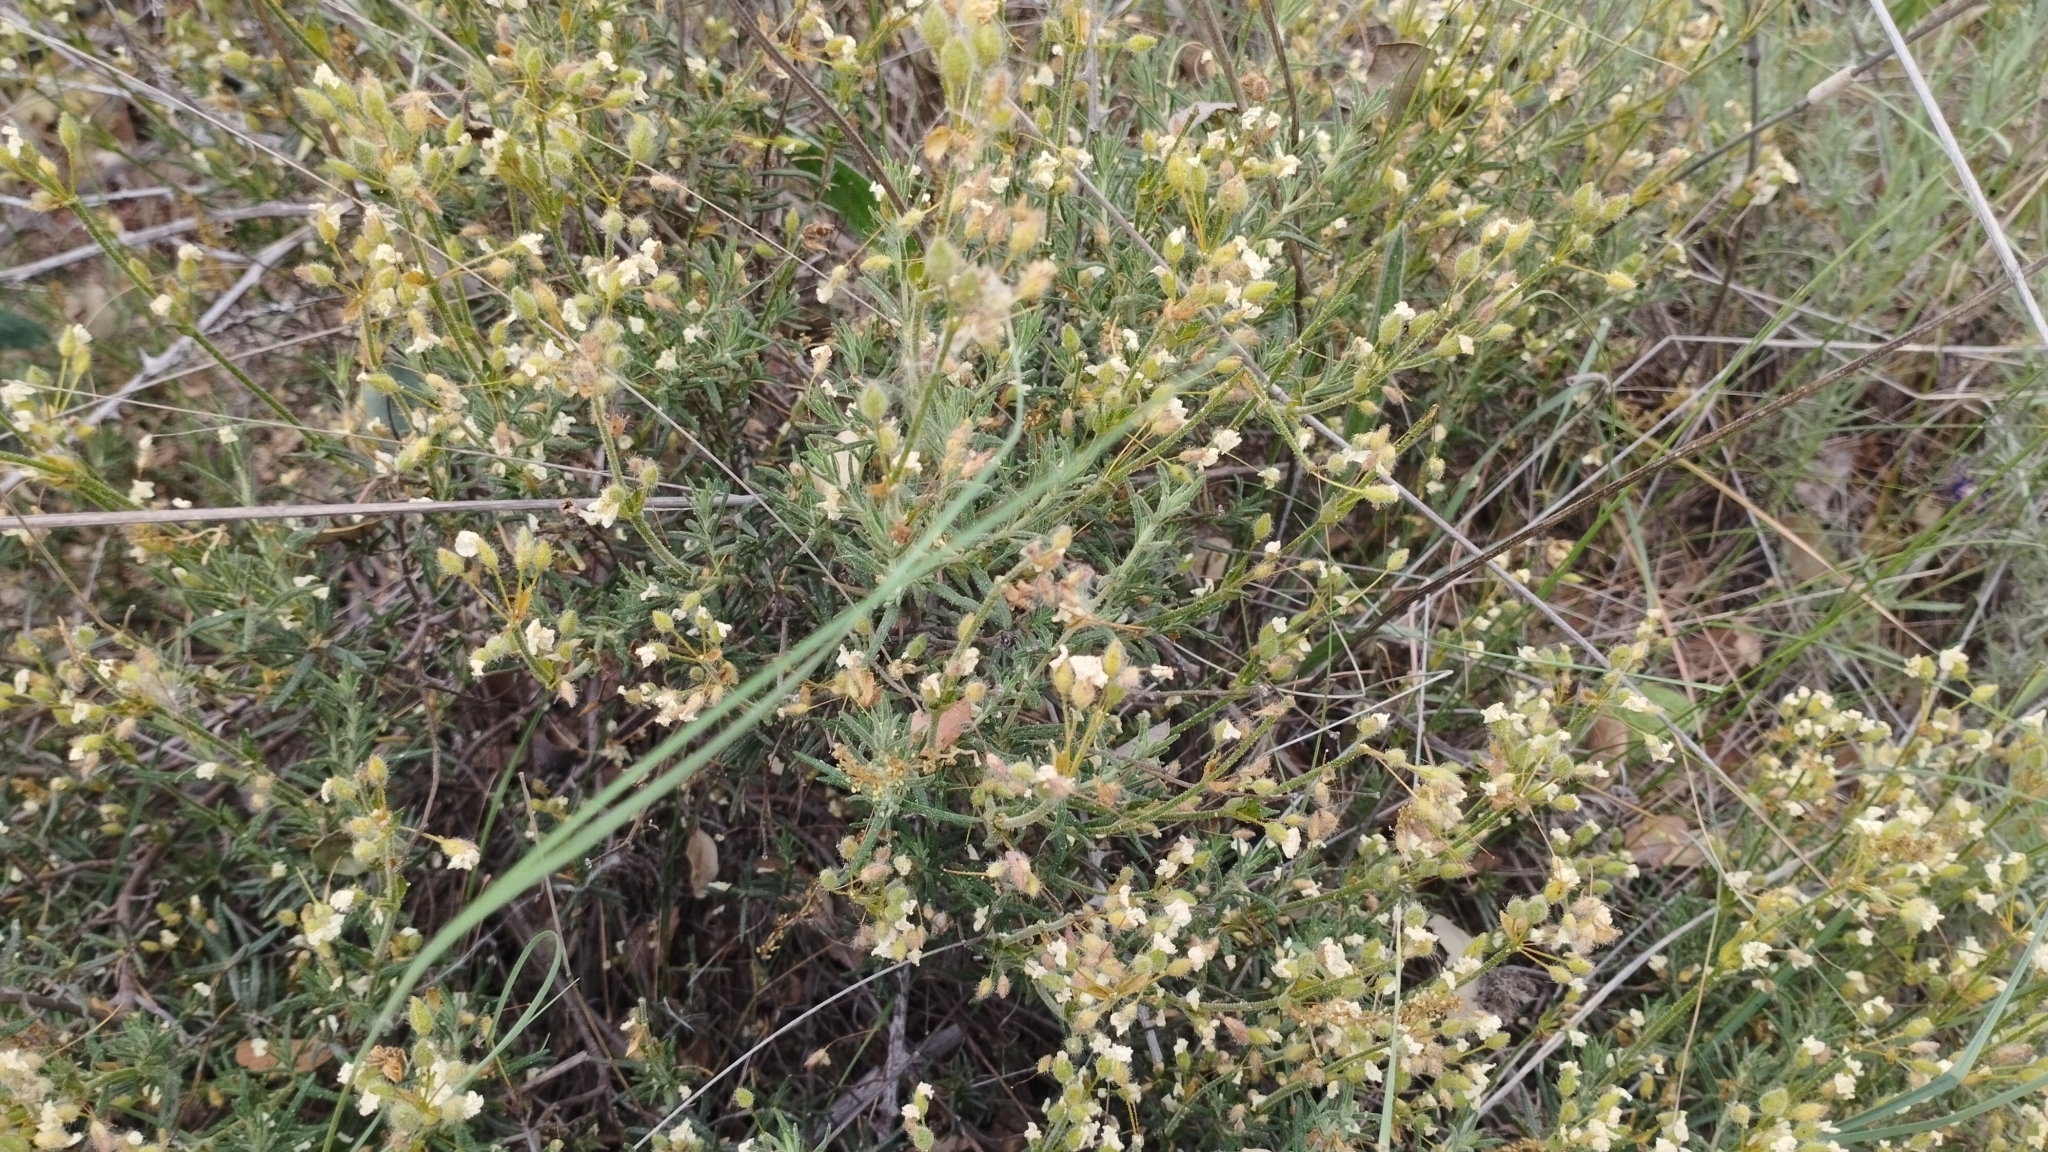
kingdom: Plantae
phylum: Tracheophyta
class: Magnoliopsida
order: Malvales
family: Cistaceae
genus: Halimium
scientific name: Halimium umbellatum
